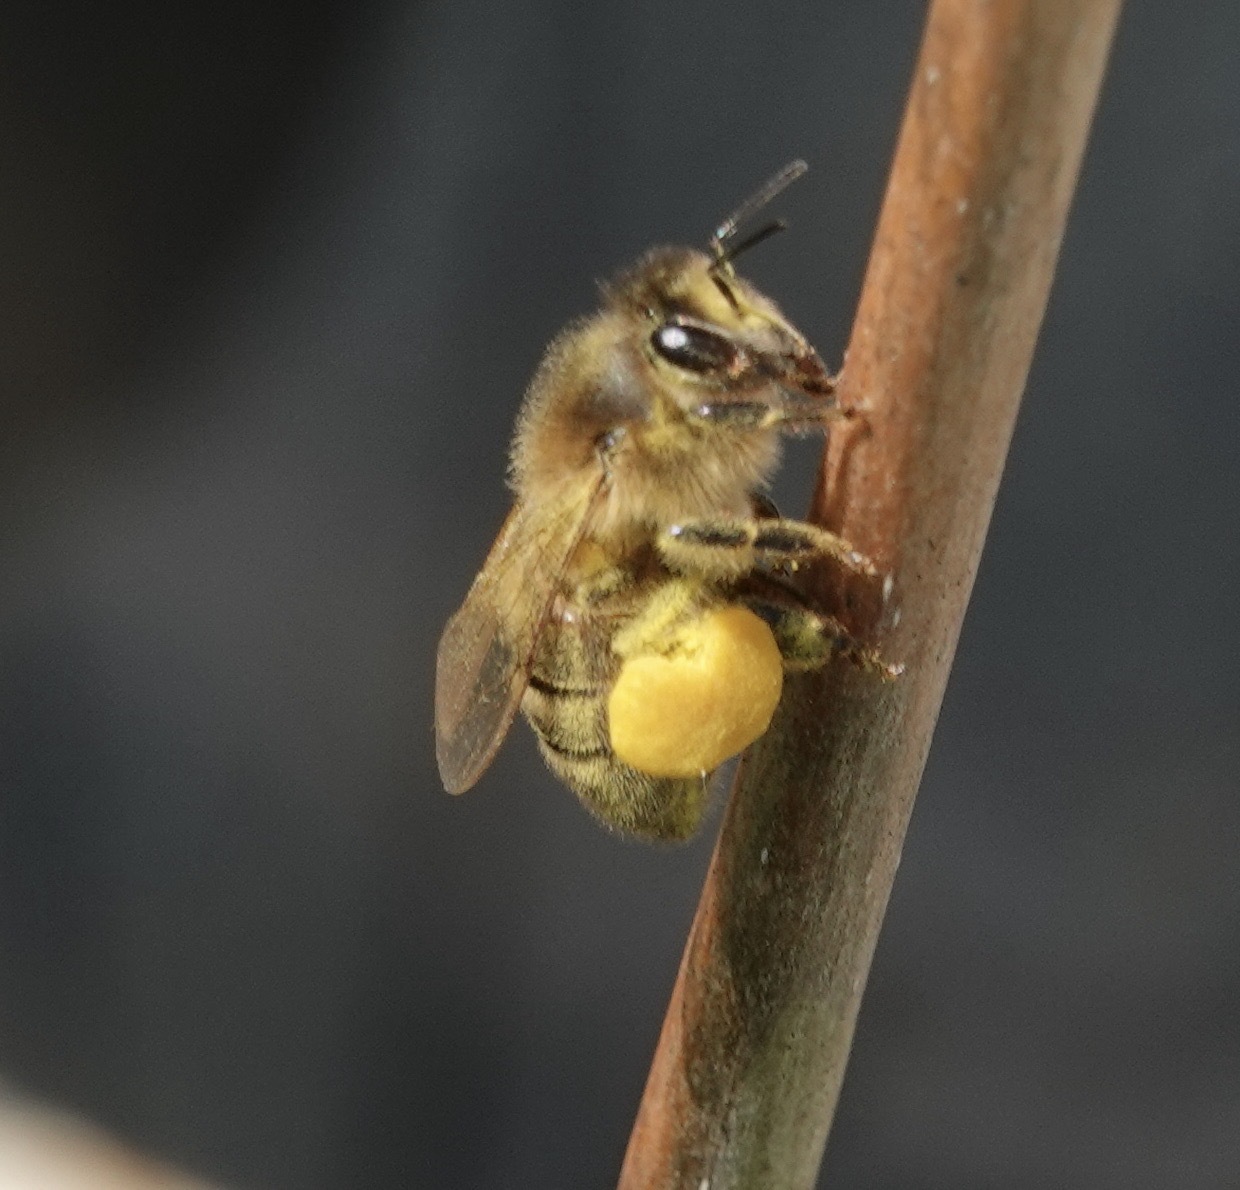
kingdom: Animalia
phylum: Arthropoda
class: Insecta
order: Hymenoptera
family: Apidae
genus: Apis
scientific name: Apis mellifera
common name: Honey bee
